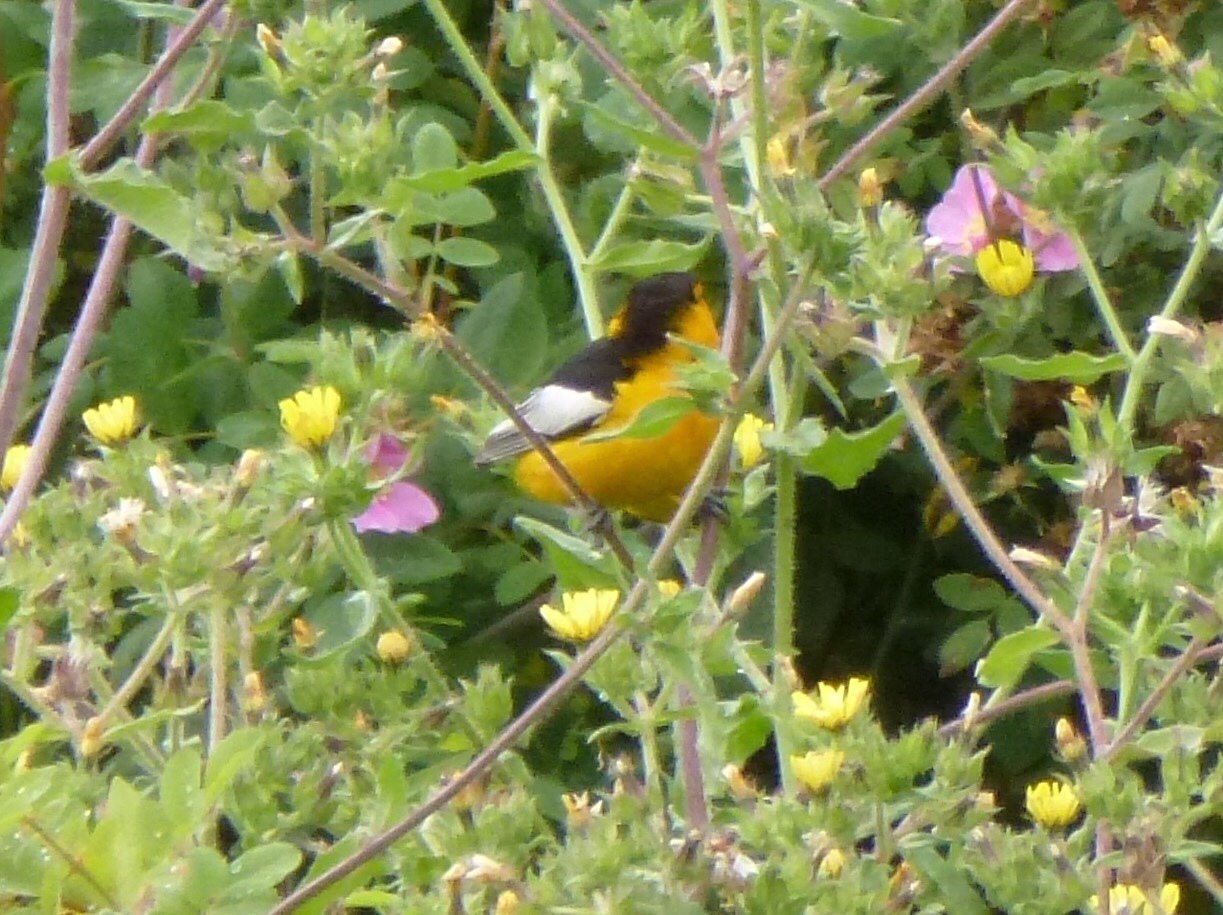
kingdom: Animalia
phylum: Chordata
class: Aves
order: Passeriformes
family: Icteridae
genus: Icterus
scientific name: Icterus bullockii
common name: Bullock's oriole
